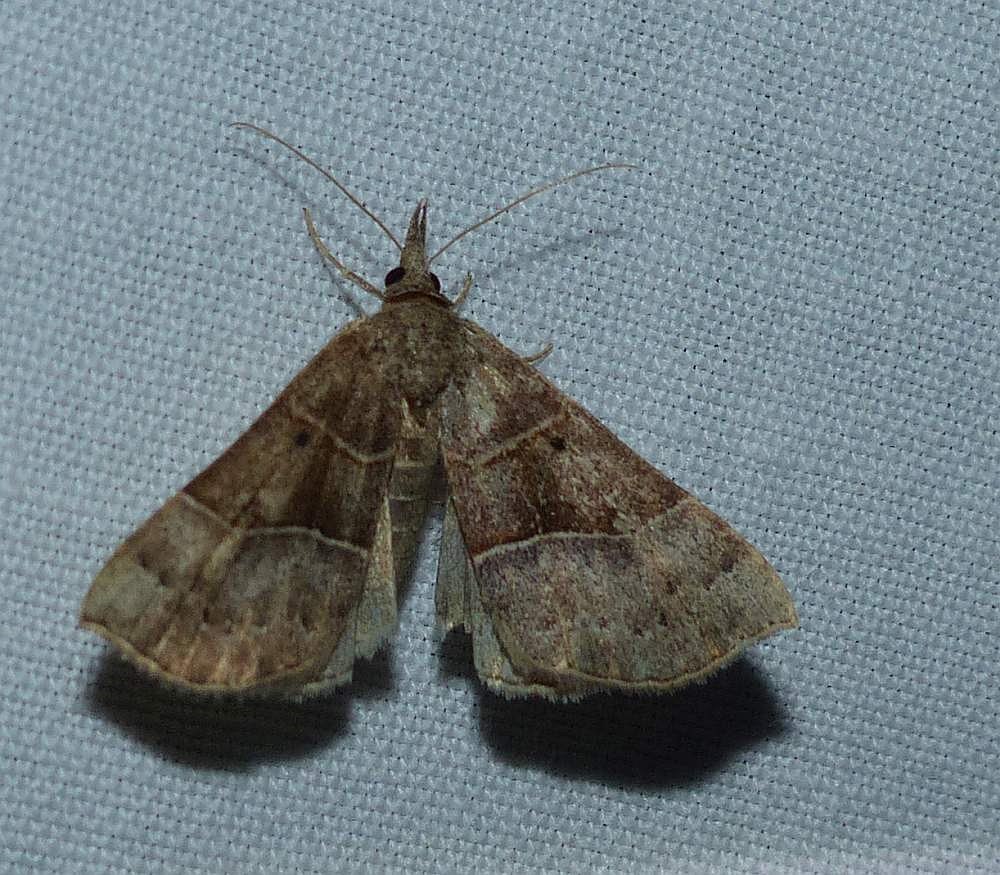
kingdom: Animalia
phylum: Arthropoda
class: Insecta
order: Lepidoptera
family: Erebidae
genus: Hypena
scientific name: Hypena deceptalis
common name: Deceptive snout
